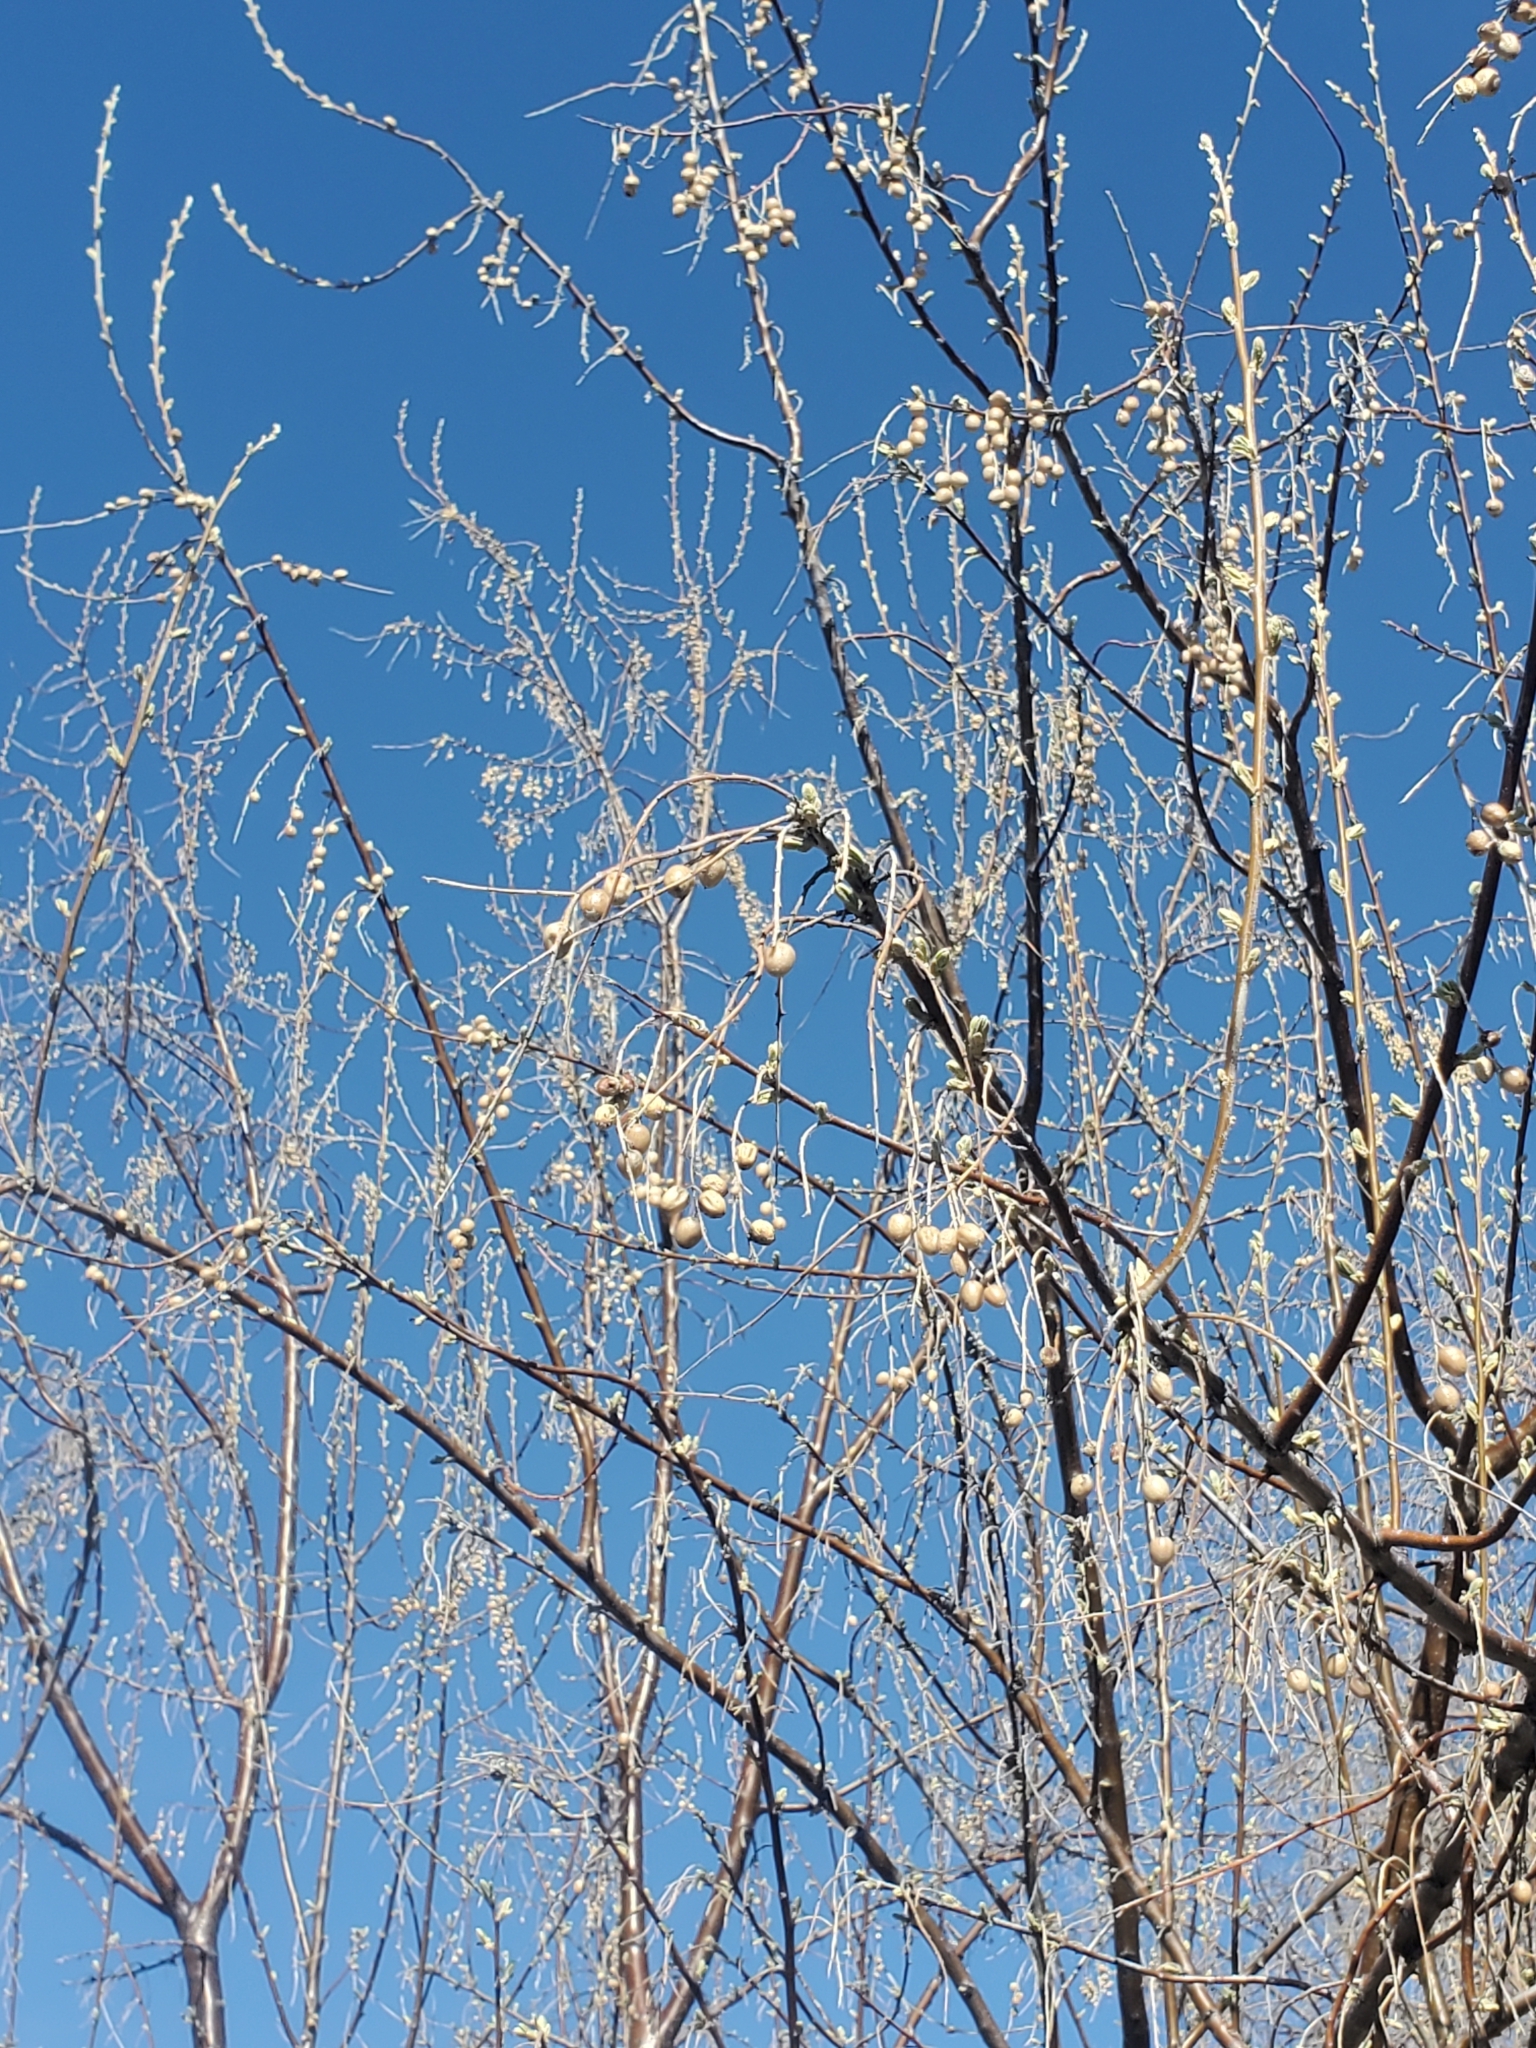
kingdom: Plantae
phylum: Tracheophyta
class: Magnoliopsida
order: Rosales
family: Elaeagnaceae
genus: Elaeagnus
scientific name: Elaeagnus angustifolia
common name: Russian olive
